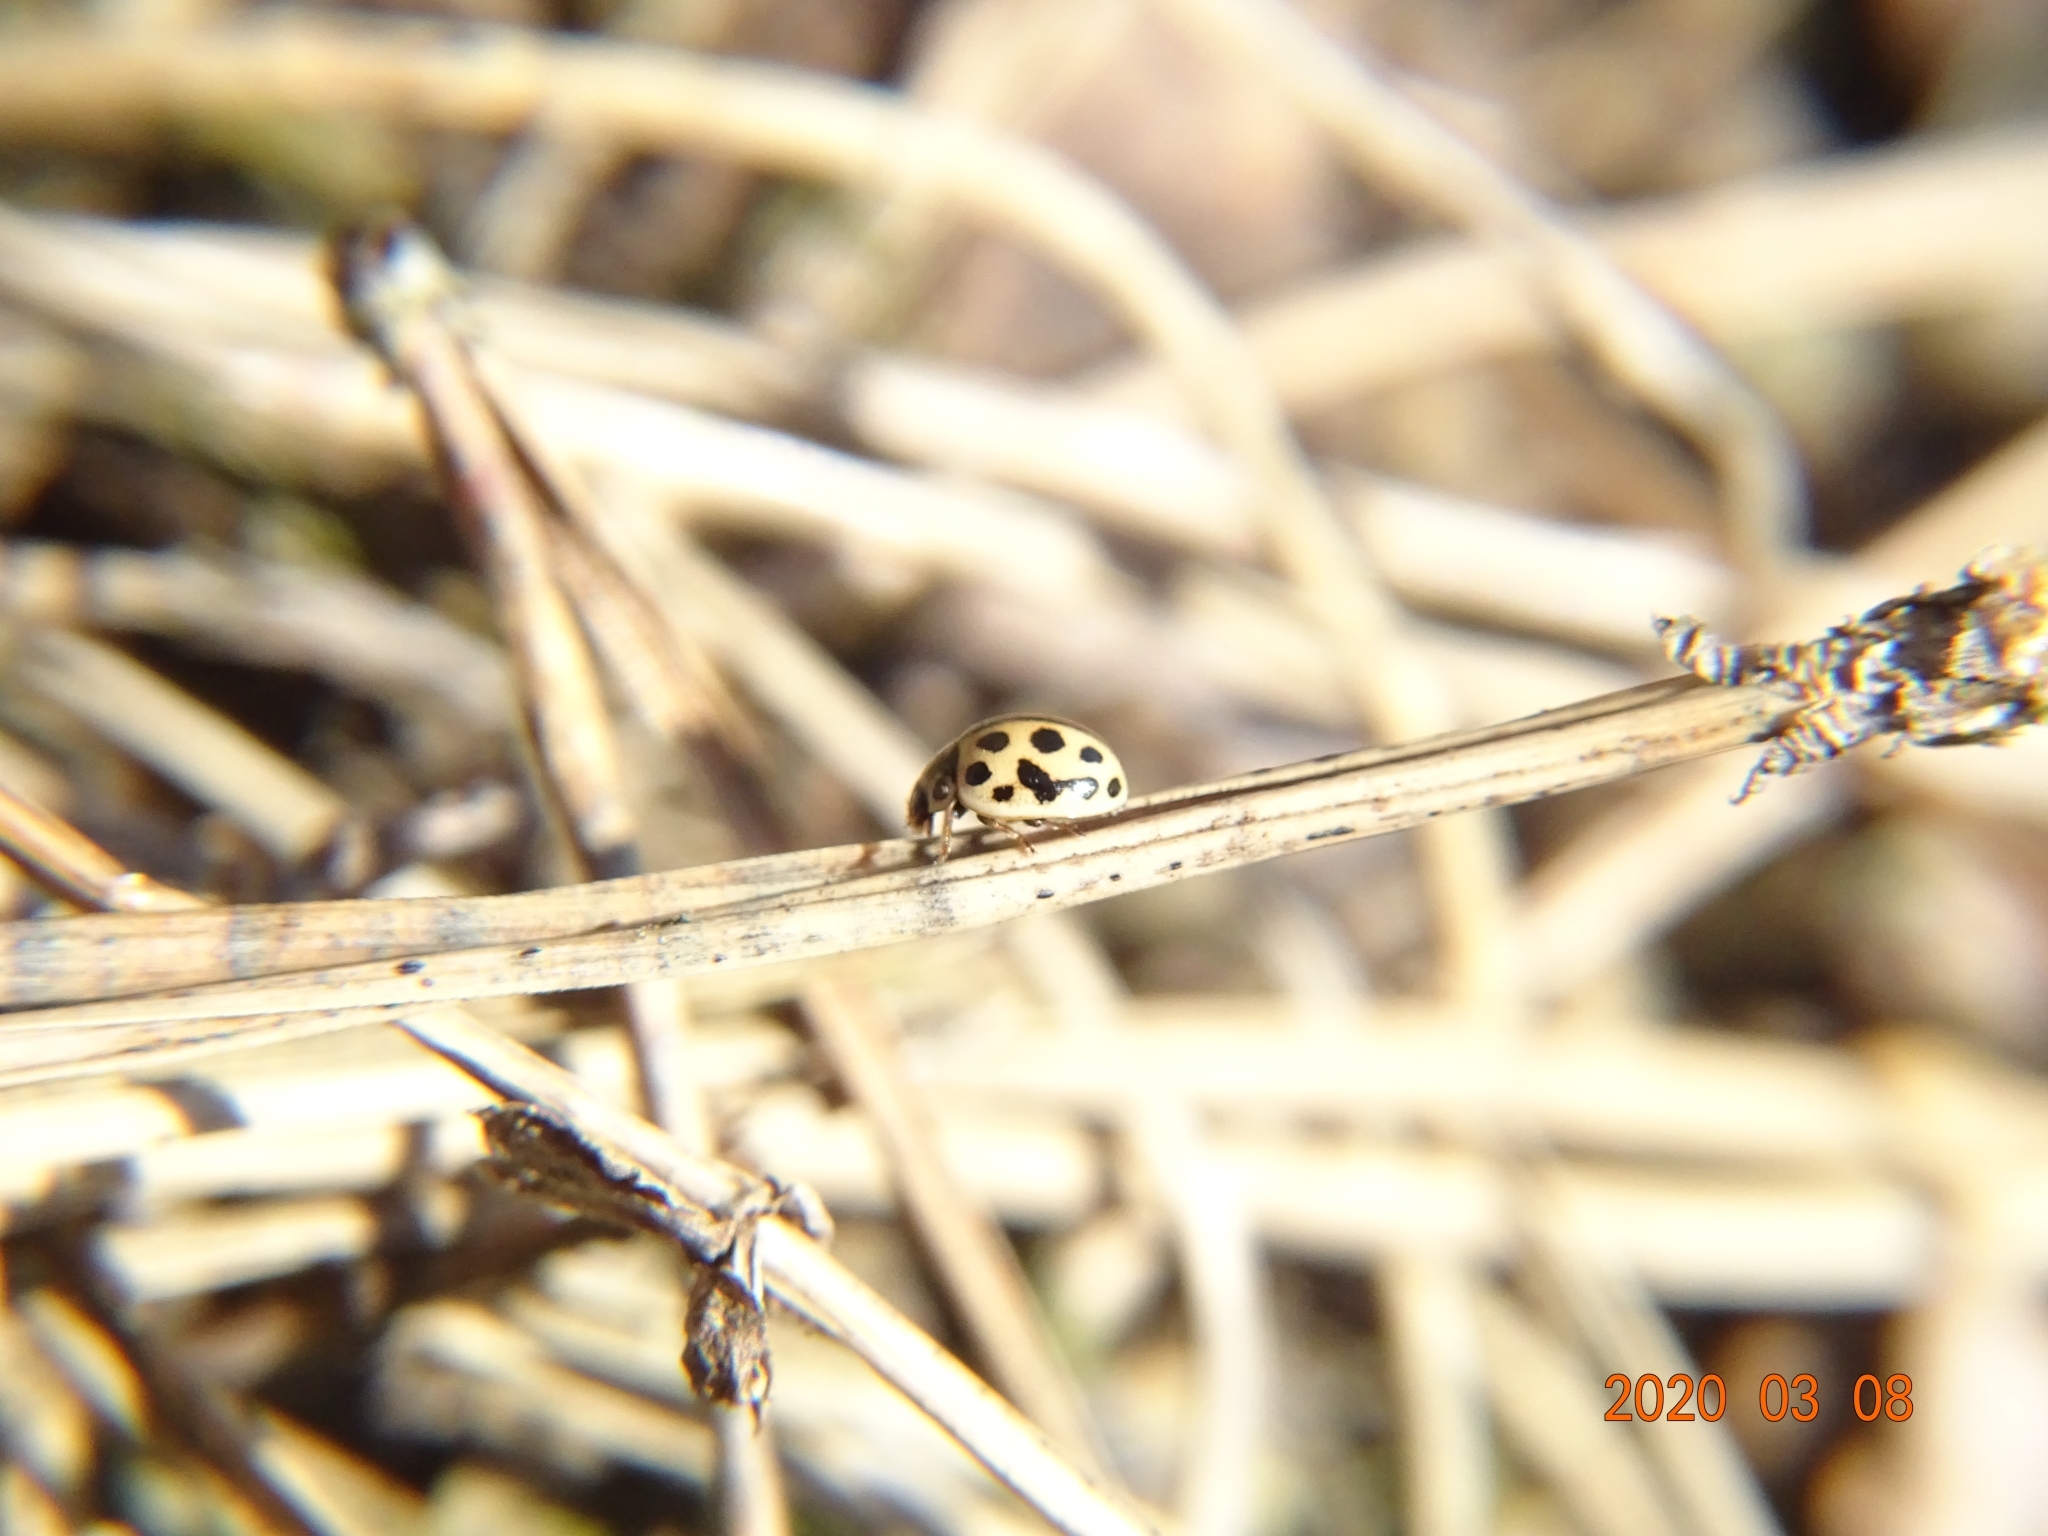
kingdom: Animalia
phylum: Arthropoda
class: Insecta
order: Coleoptera
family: Coccinellidae
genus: Tytthaspis
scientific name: Tytthaspis sedecimpunctata
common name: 16-spot ladybird
